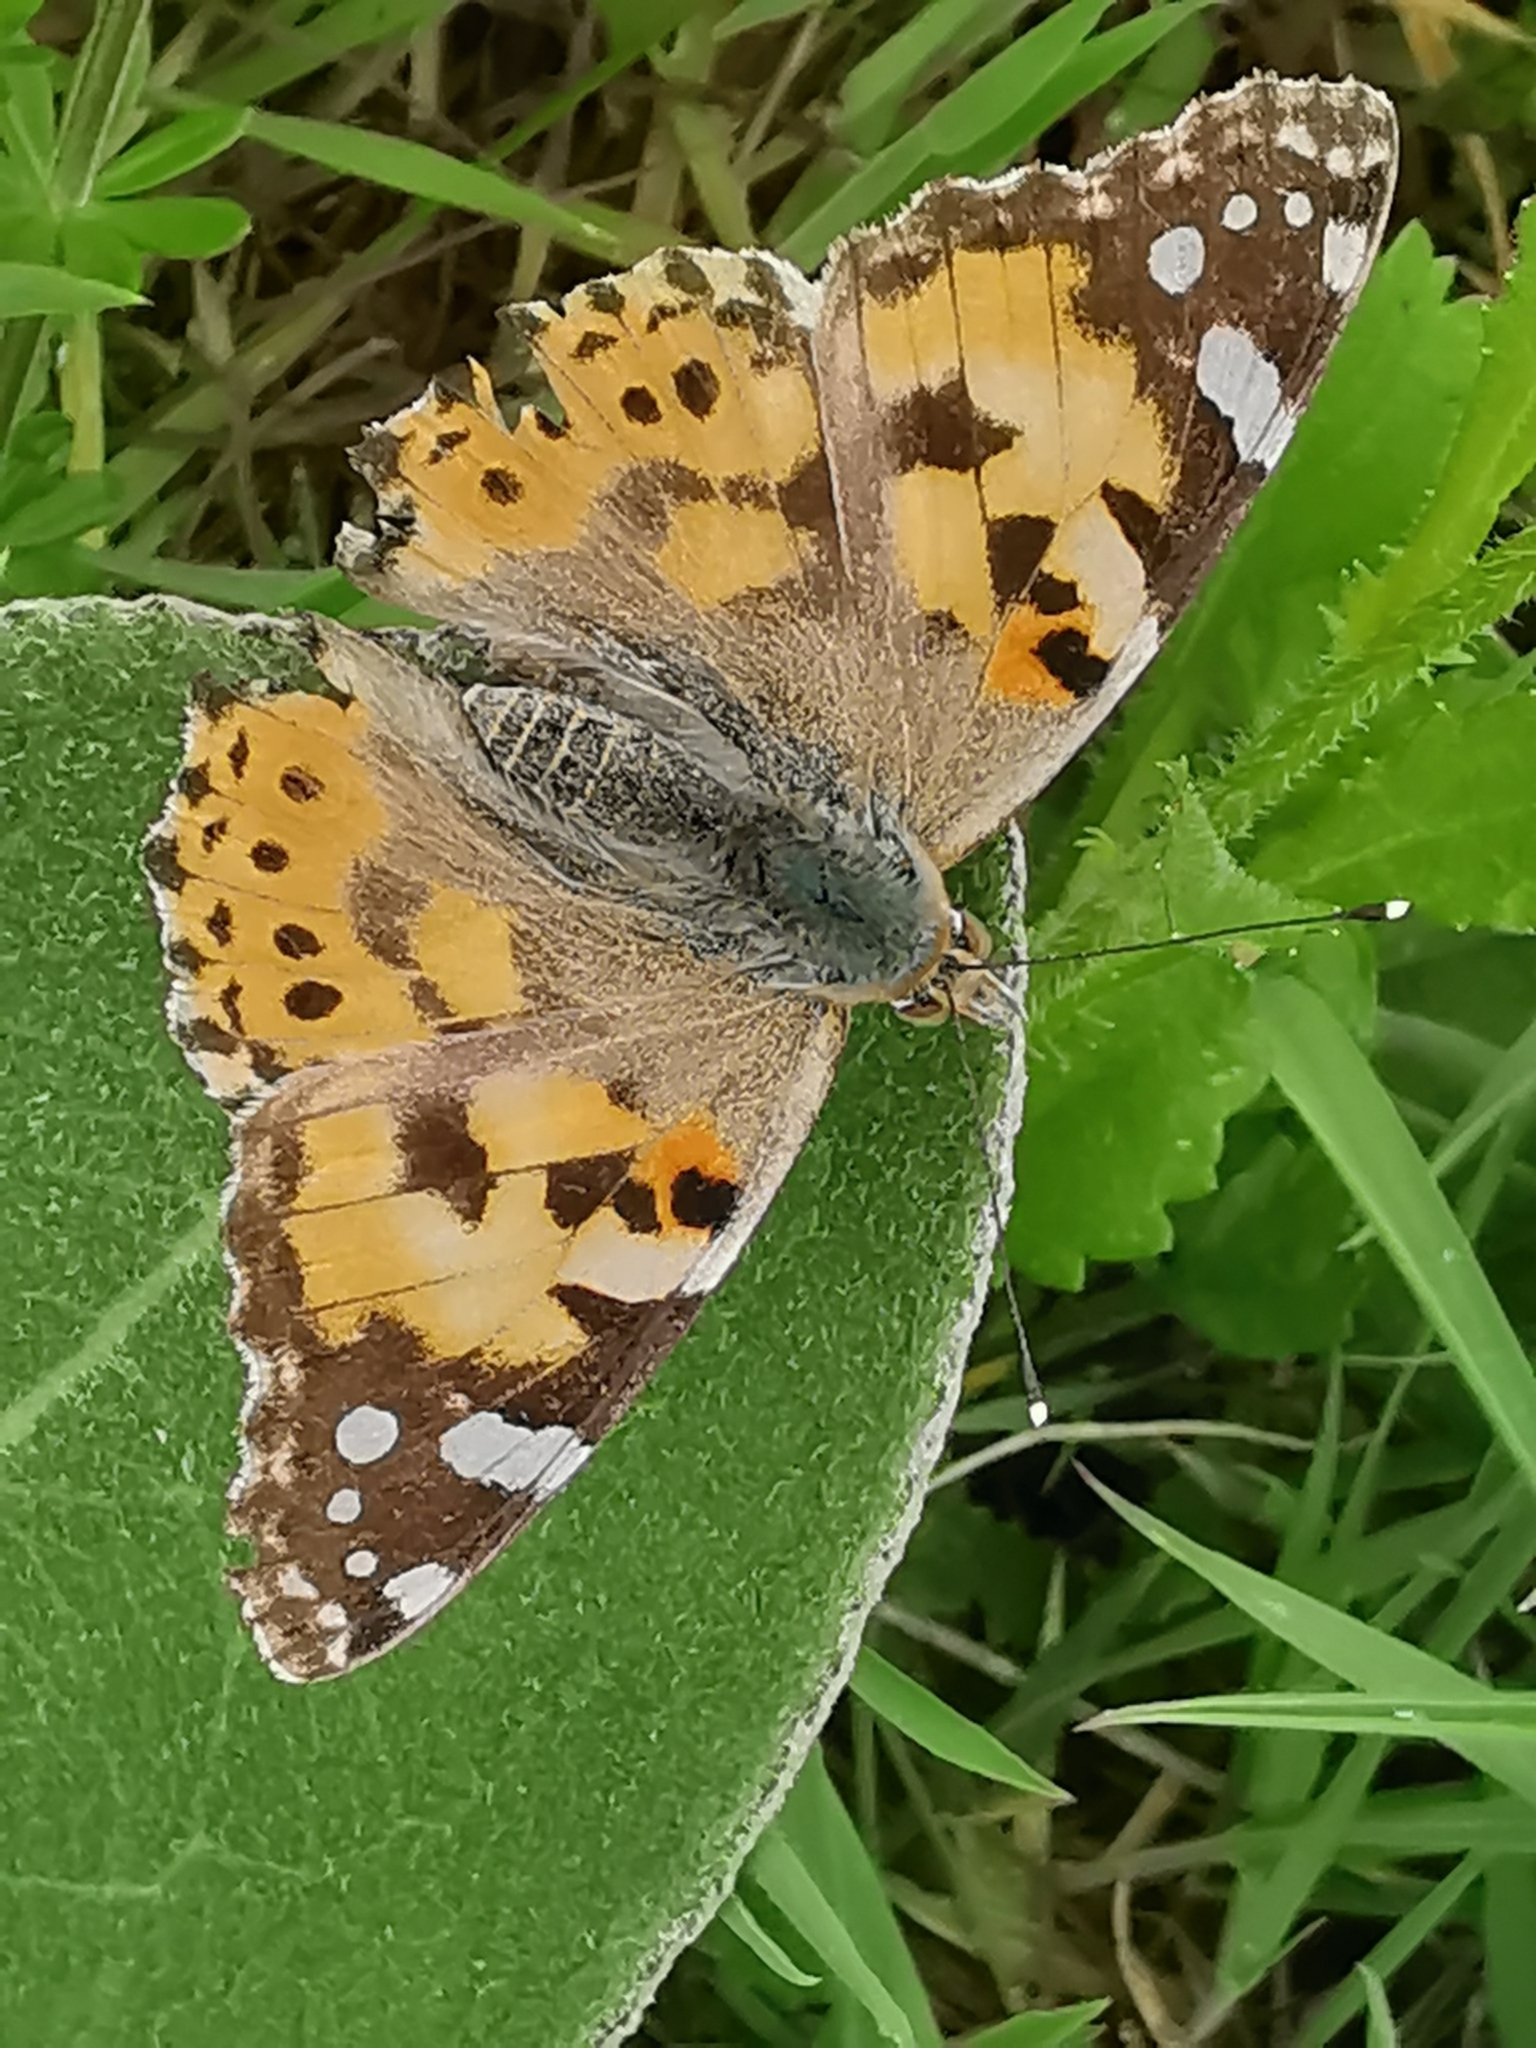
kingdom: Animalia
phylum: Arthropoda
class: Insecta
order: Lepidoptera
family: Nymphalidae
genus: Vanessa
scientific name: Vanessa cardui
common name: Painted lady
